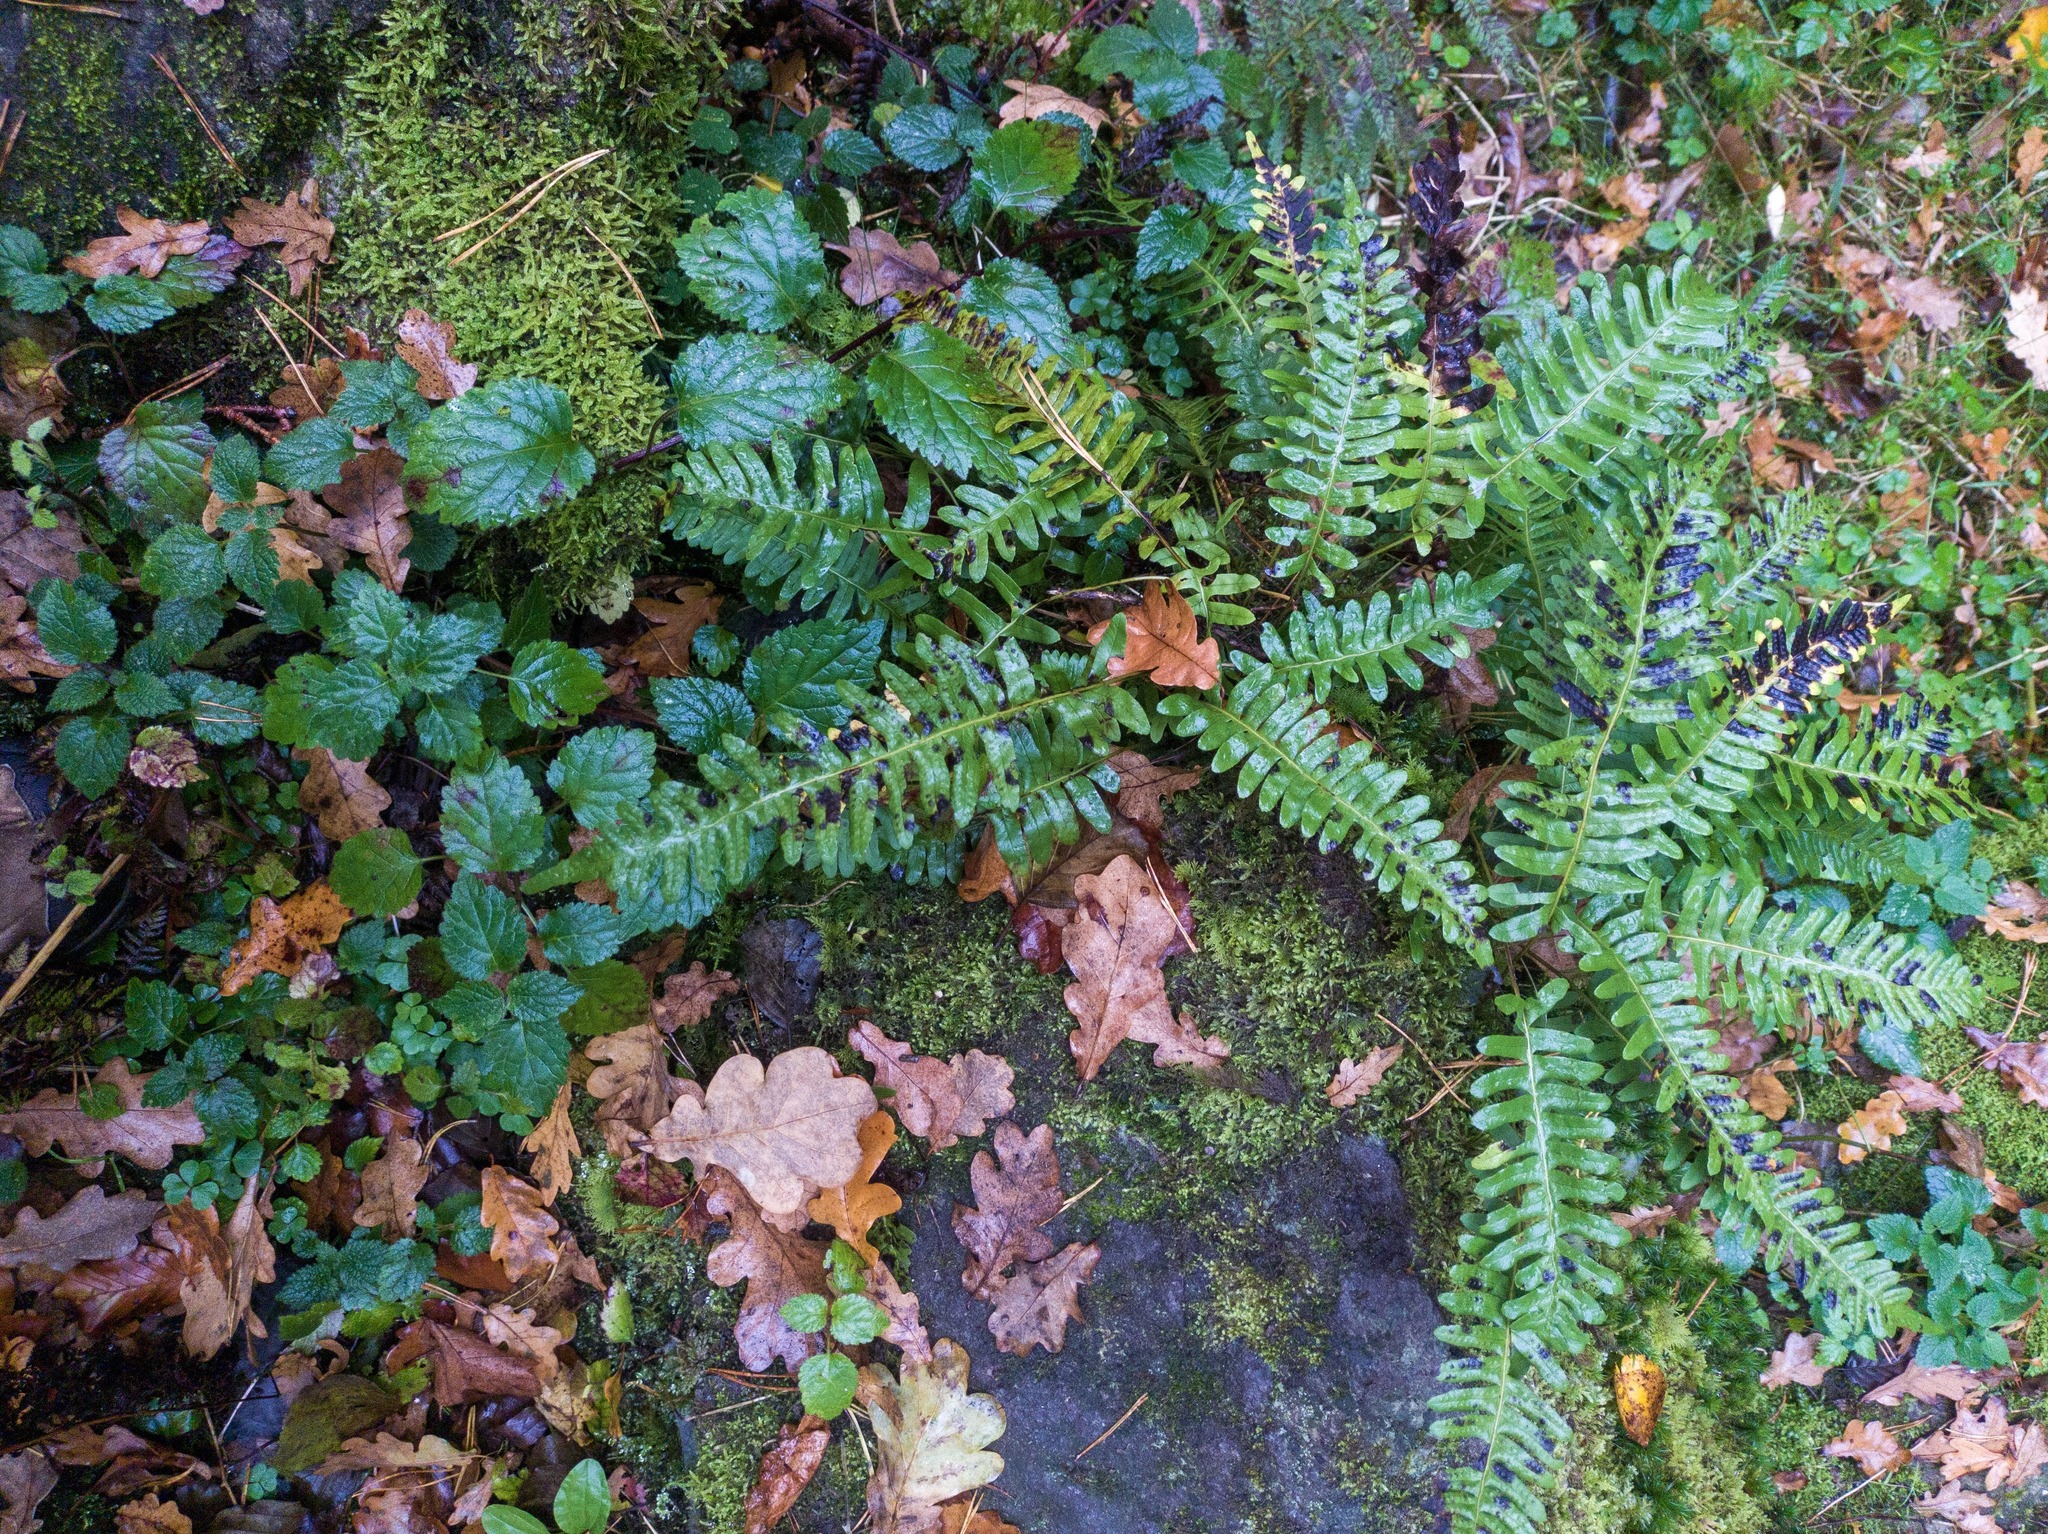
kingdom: Plantae
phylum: Tracheophyta
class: Polypodiopsida
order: Polypodiales
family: Polypodiaceae
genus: Polypodium
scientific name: Polypodium vulgare
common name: Common polypody
